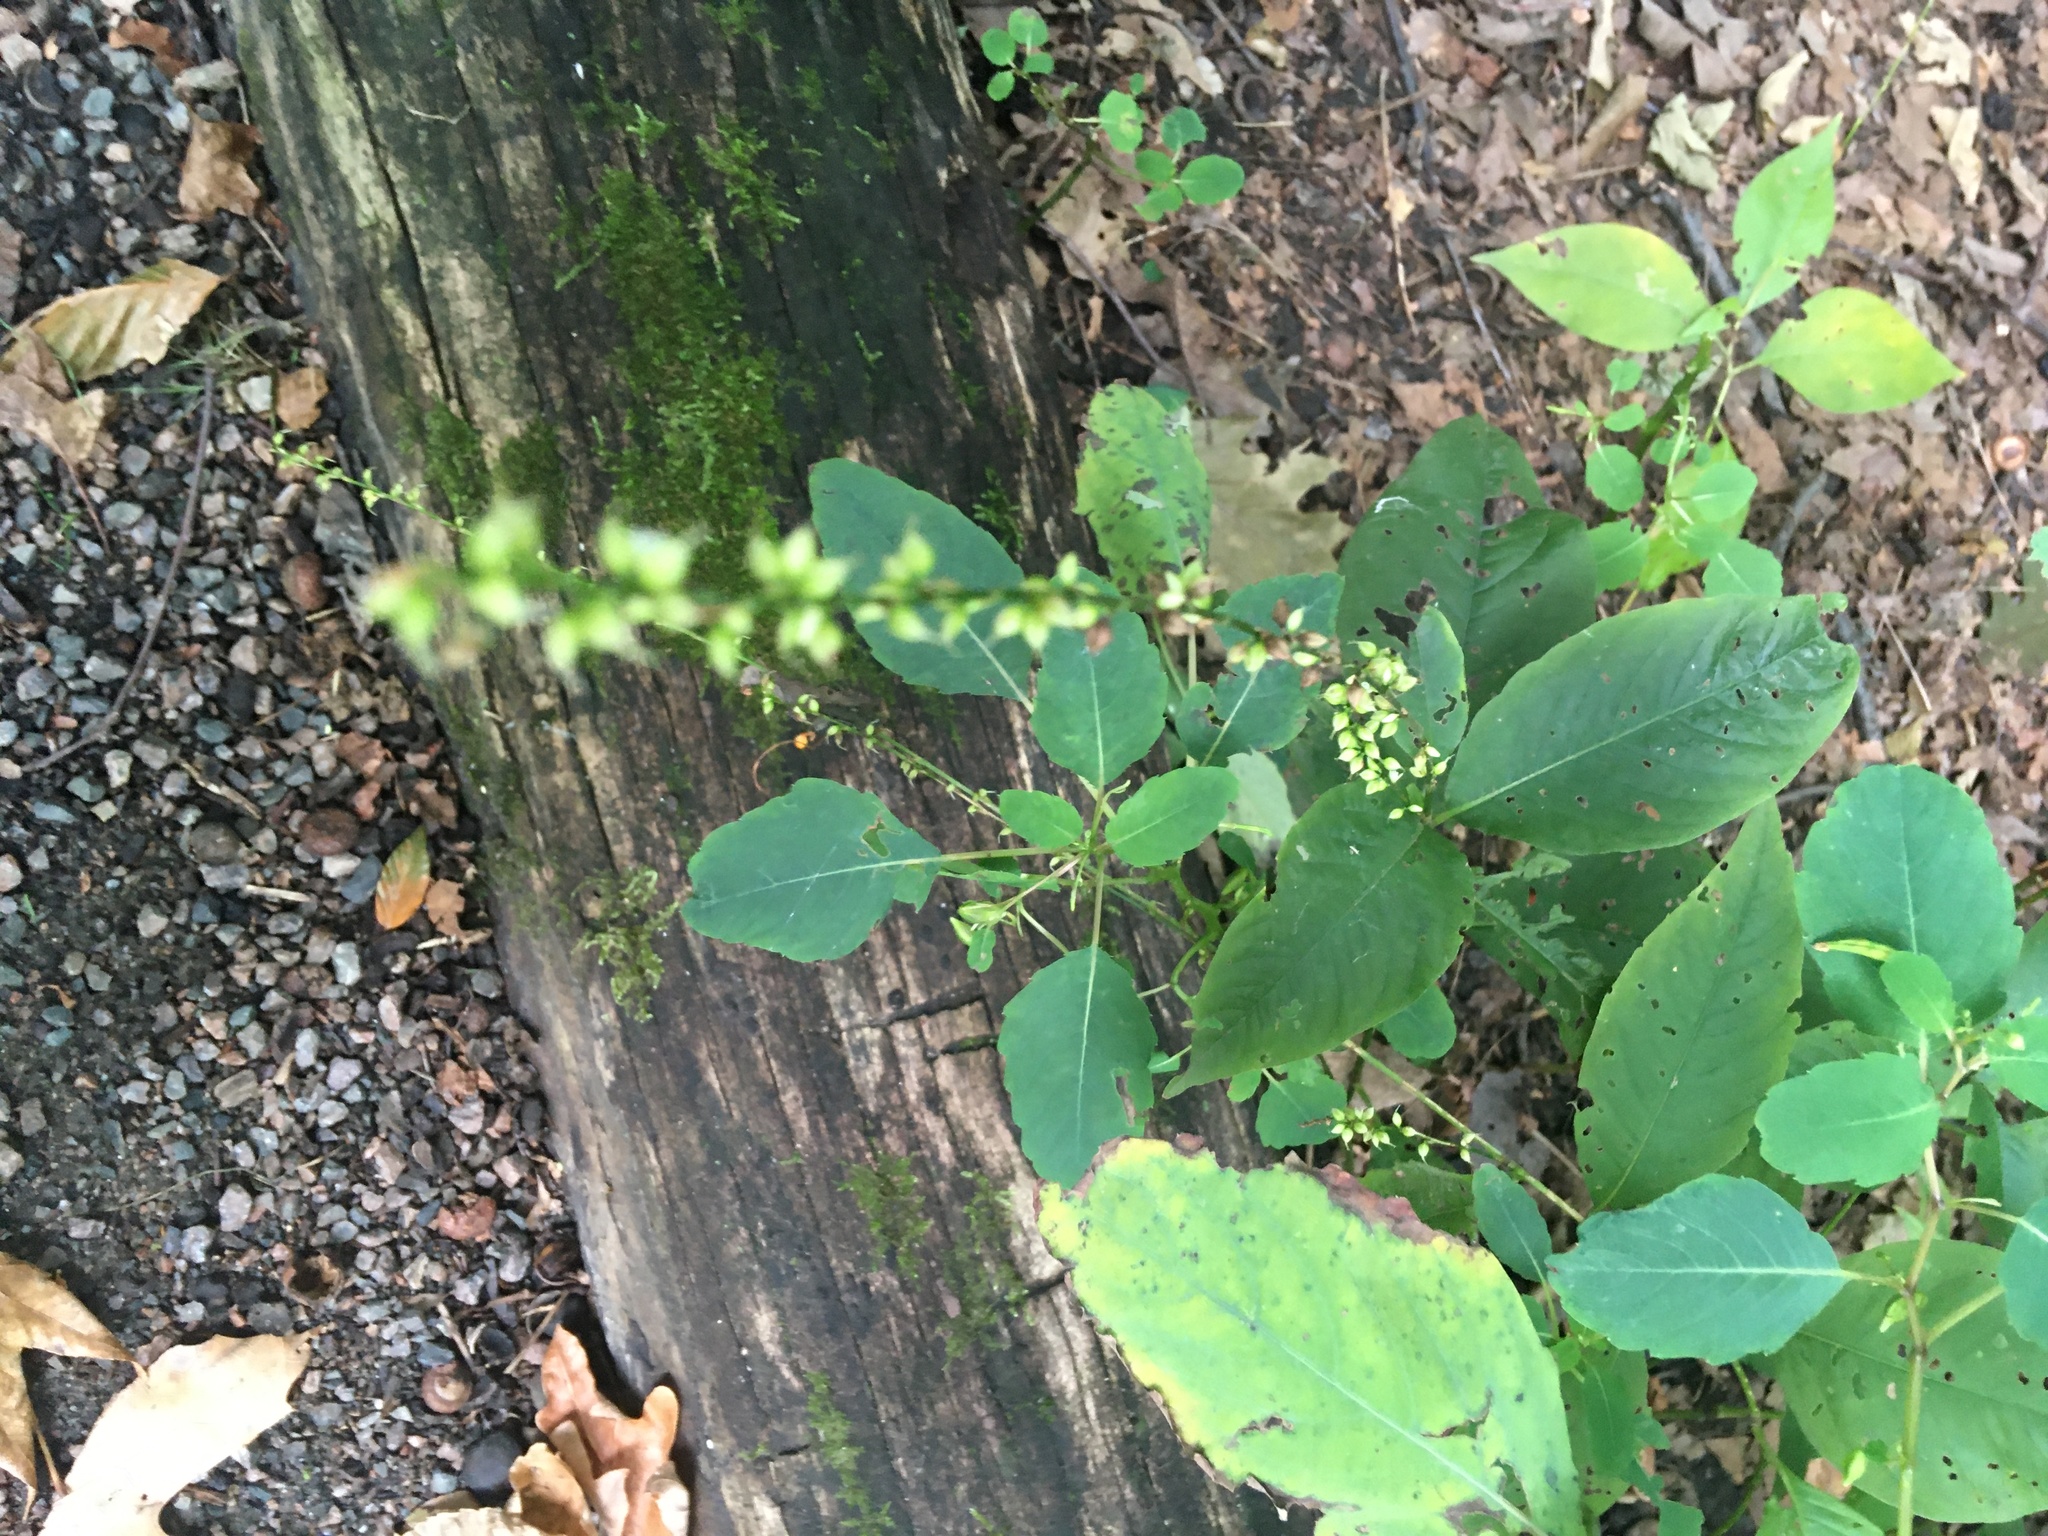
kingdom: Plantae
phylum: Tracheophyta
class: Magnoliopsida
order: Caryophyllales
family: Polygonaceae
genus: Persicaria
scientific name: Persicaria virginiana
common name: Jumpseed
